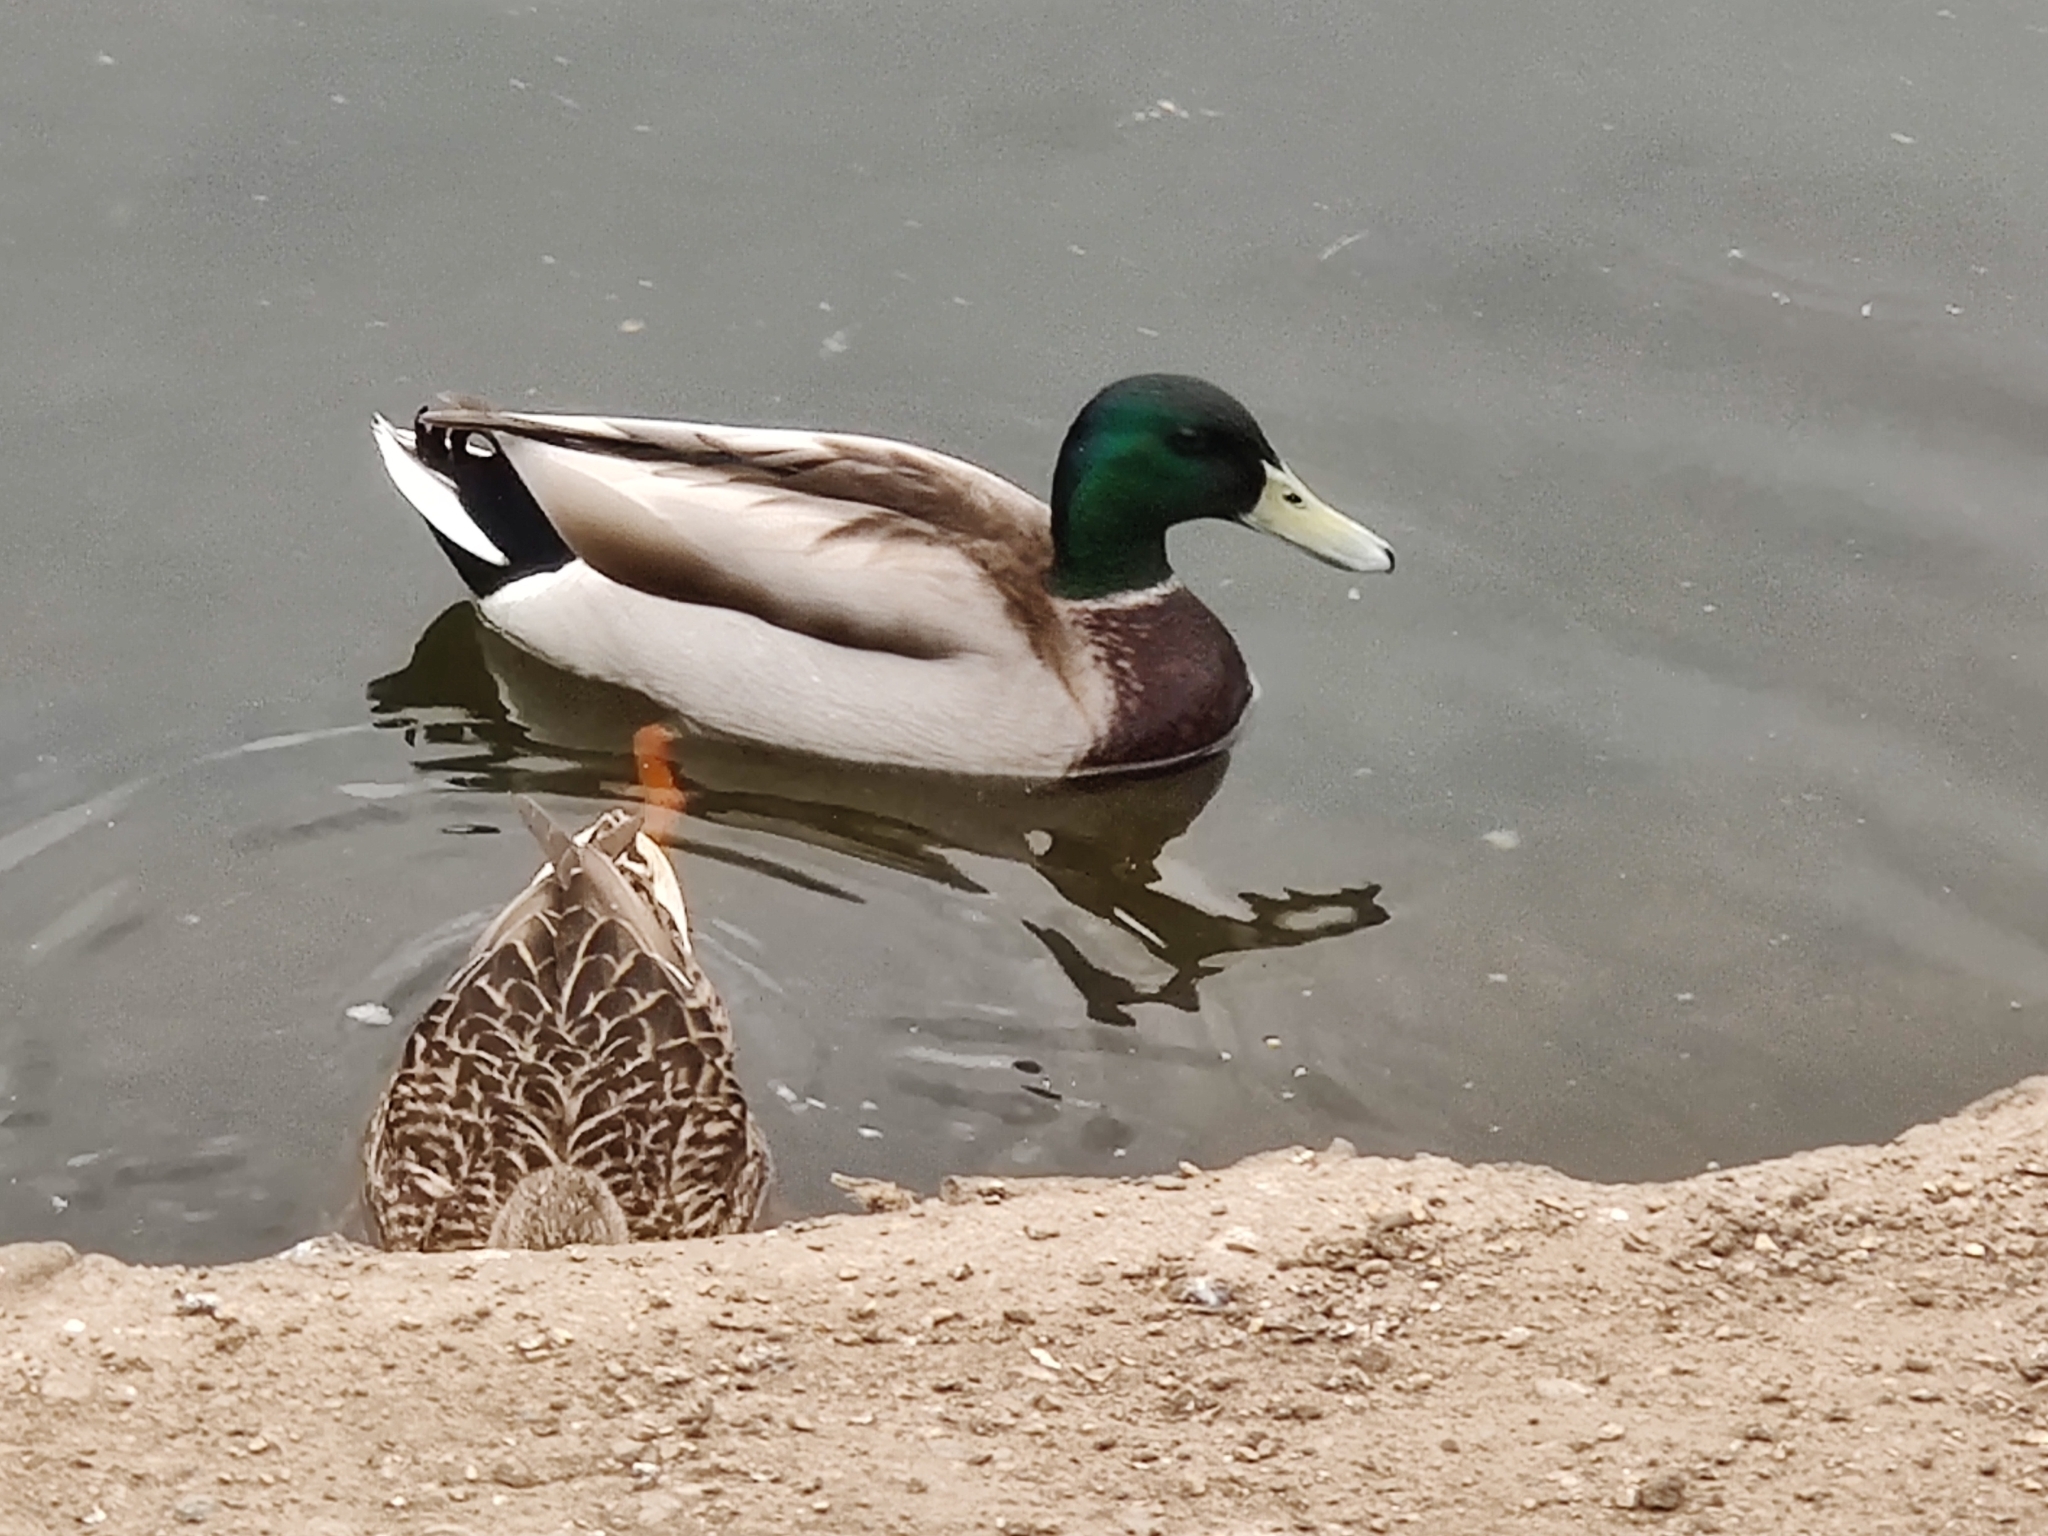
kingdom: Animalia
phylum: Chordata
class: Aves
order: Anseriformes
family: Anatidae
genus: Anas
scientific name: Anas platyrhynchos
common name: Mallard
